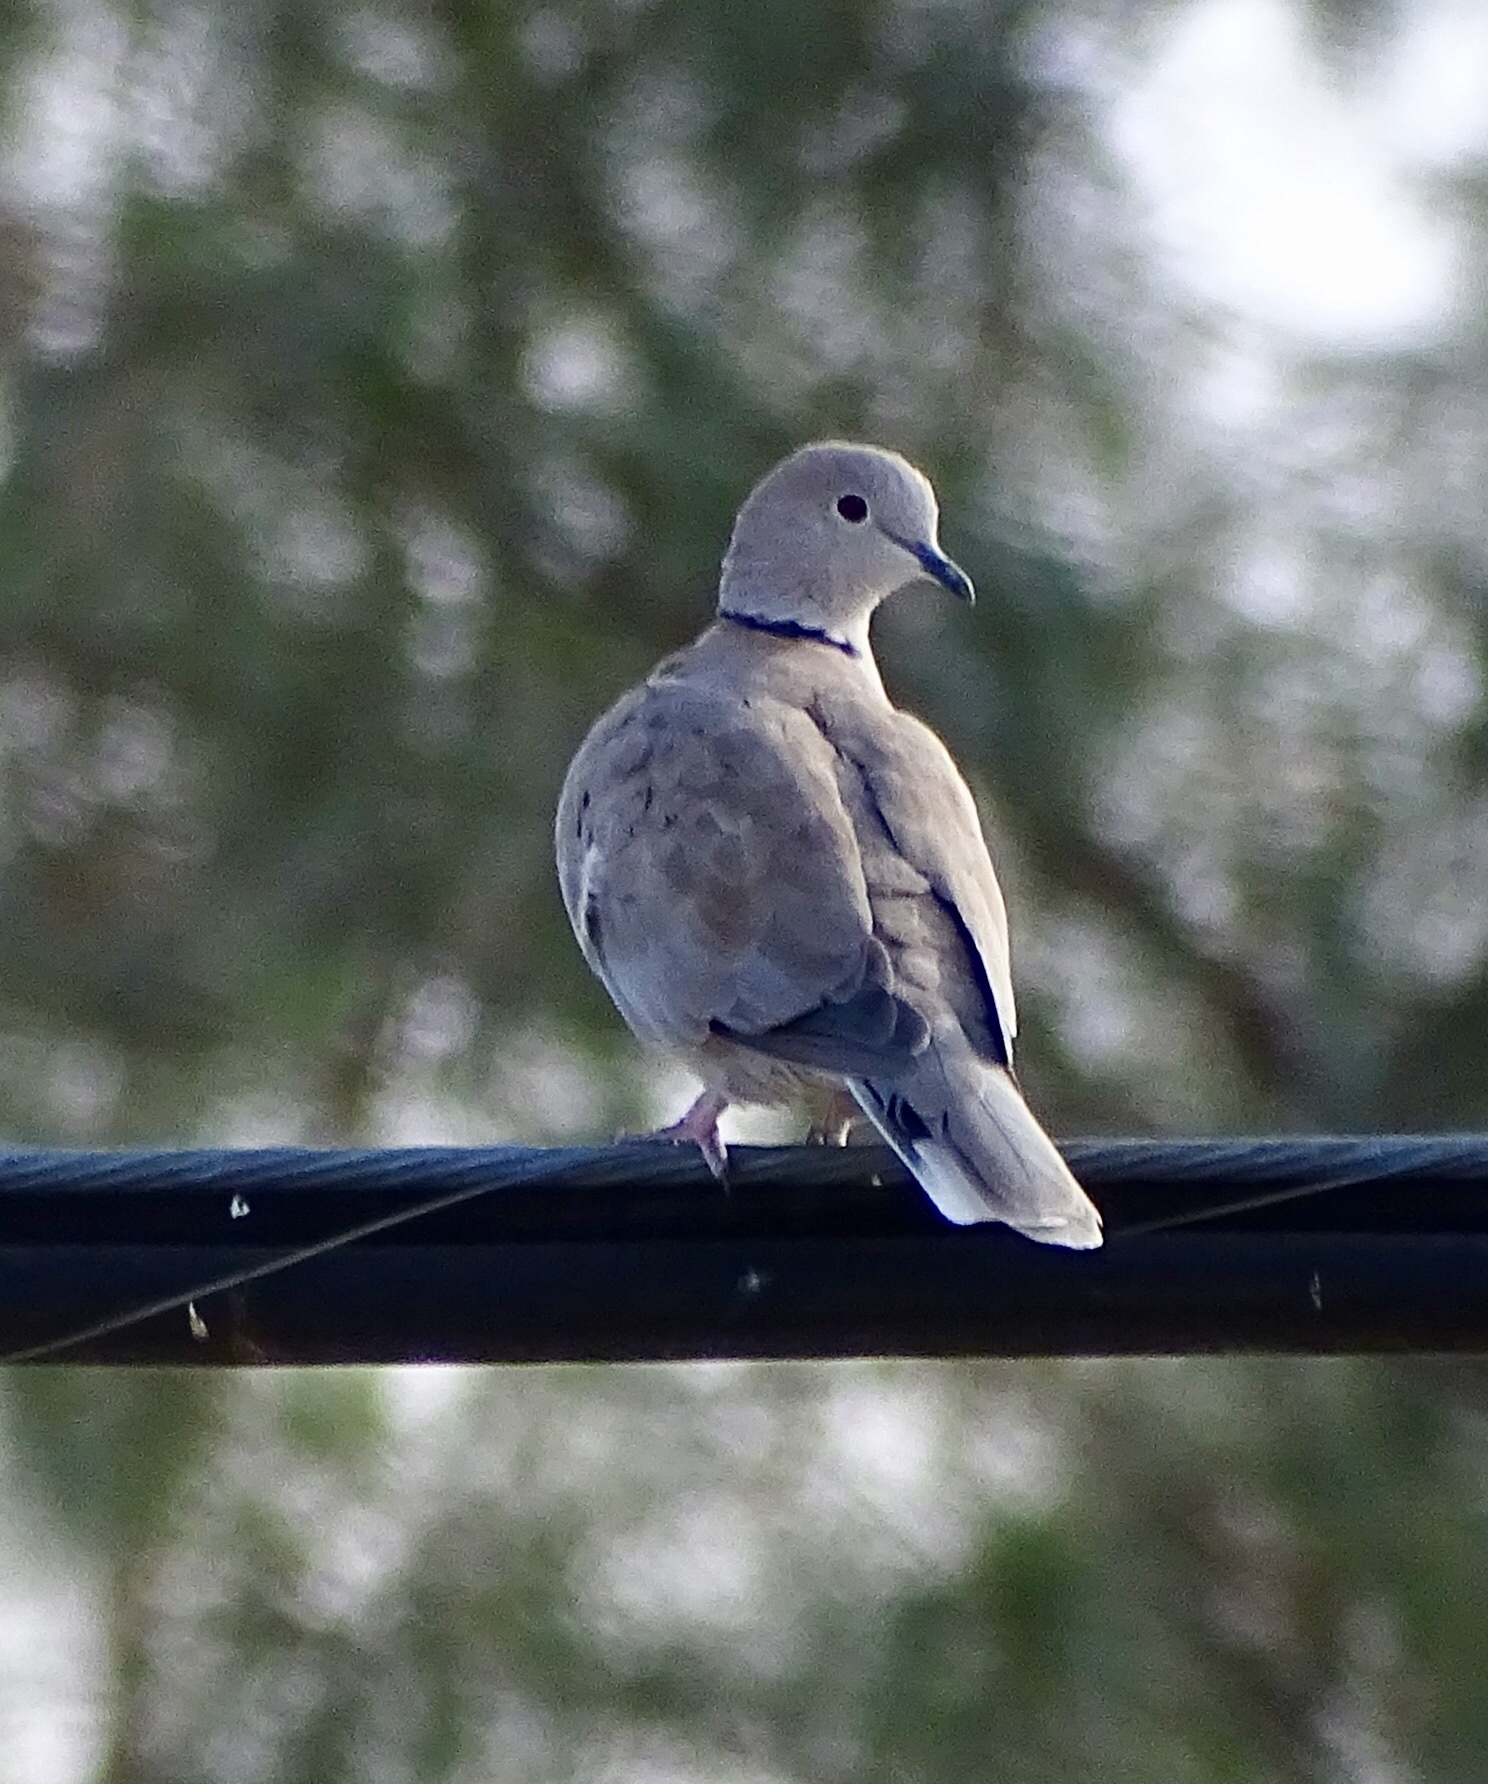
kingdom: Animalia
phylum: Chordata
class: Aves
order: Columbiformes
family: Columbidae
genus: Streptopelia
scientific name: Streptopelia decaocto
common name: Eurasian collared dove
